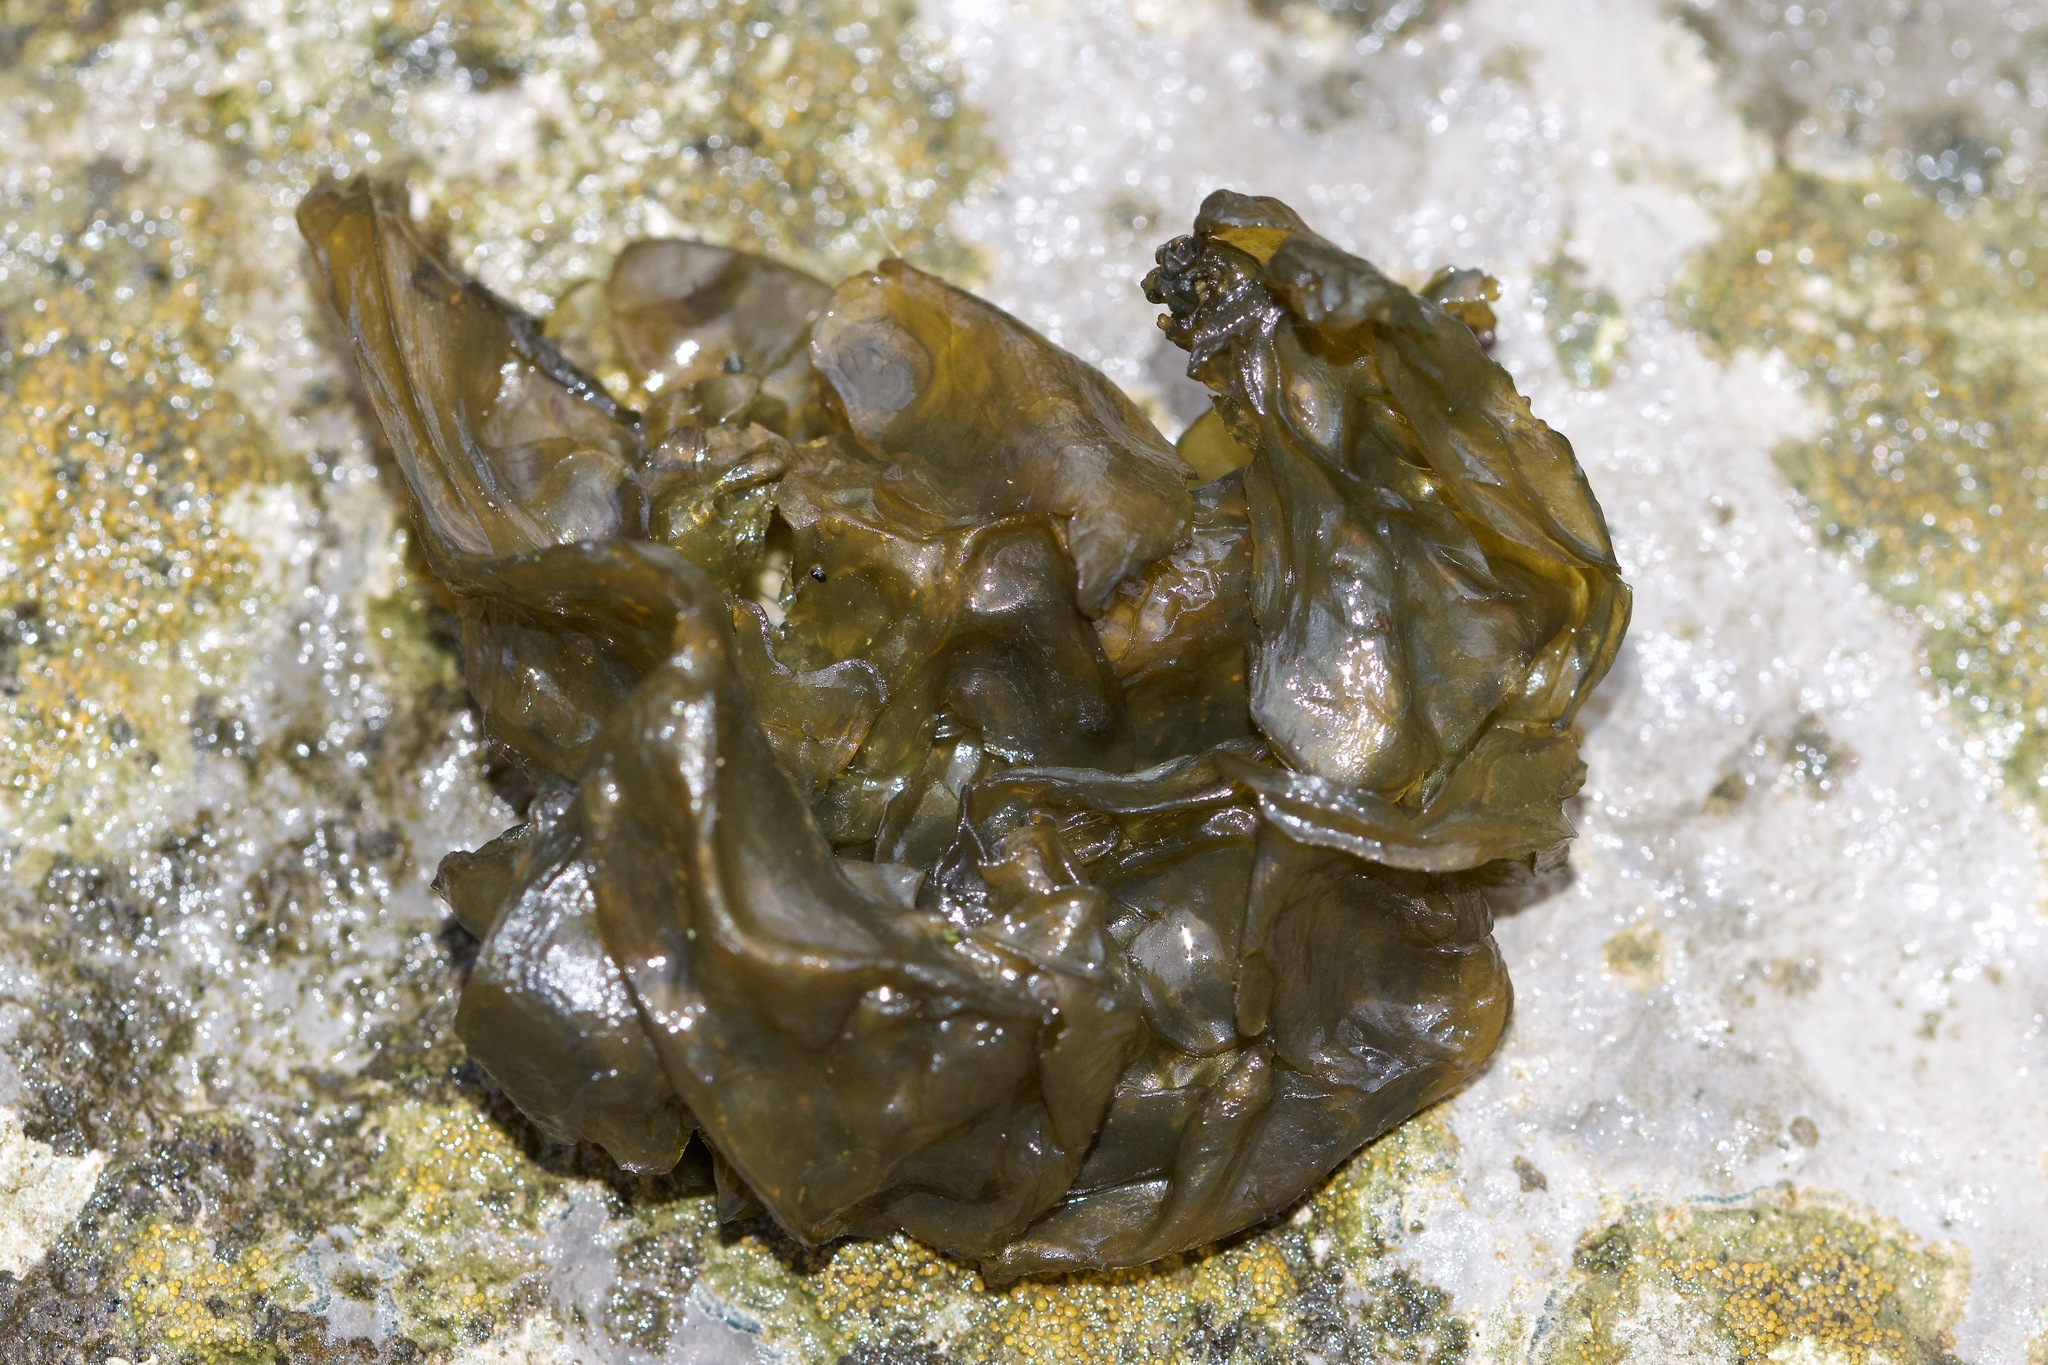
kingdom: Bacteria
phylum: Cyanobacteria
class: Cyanobacteriia
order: Cyanobacteriales
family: Nostocaceae
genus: Nostoc
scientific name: Nostoc commune
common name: Star jelly
